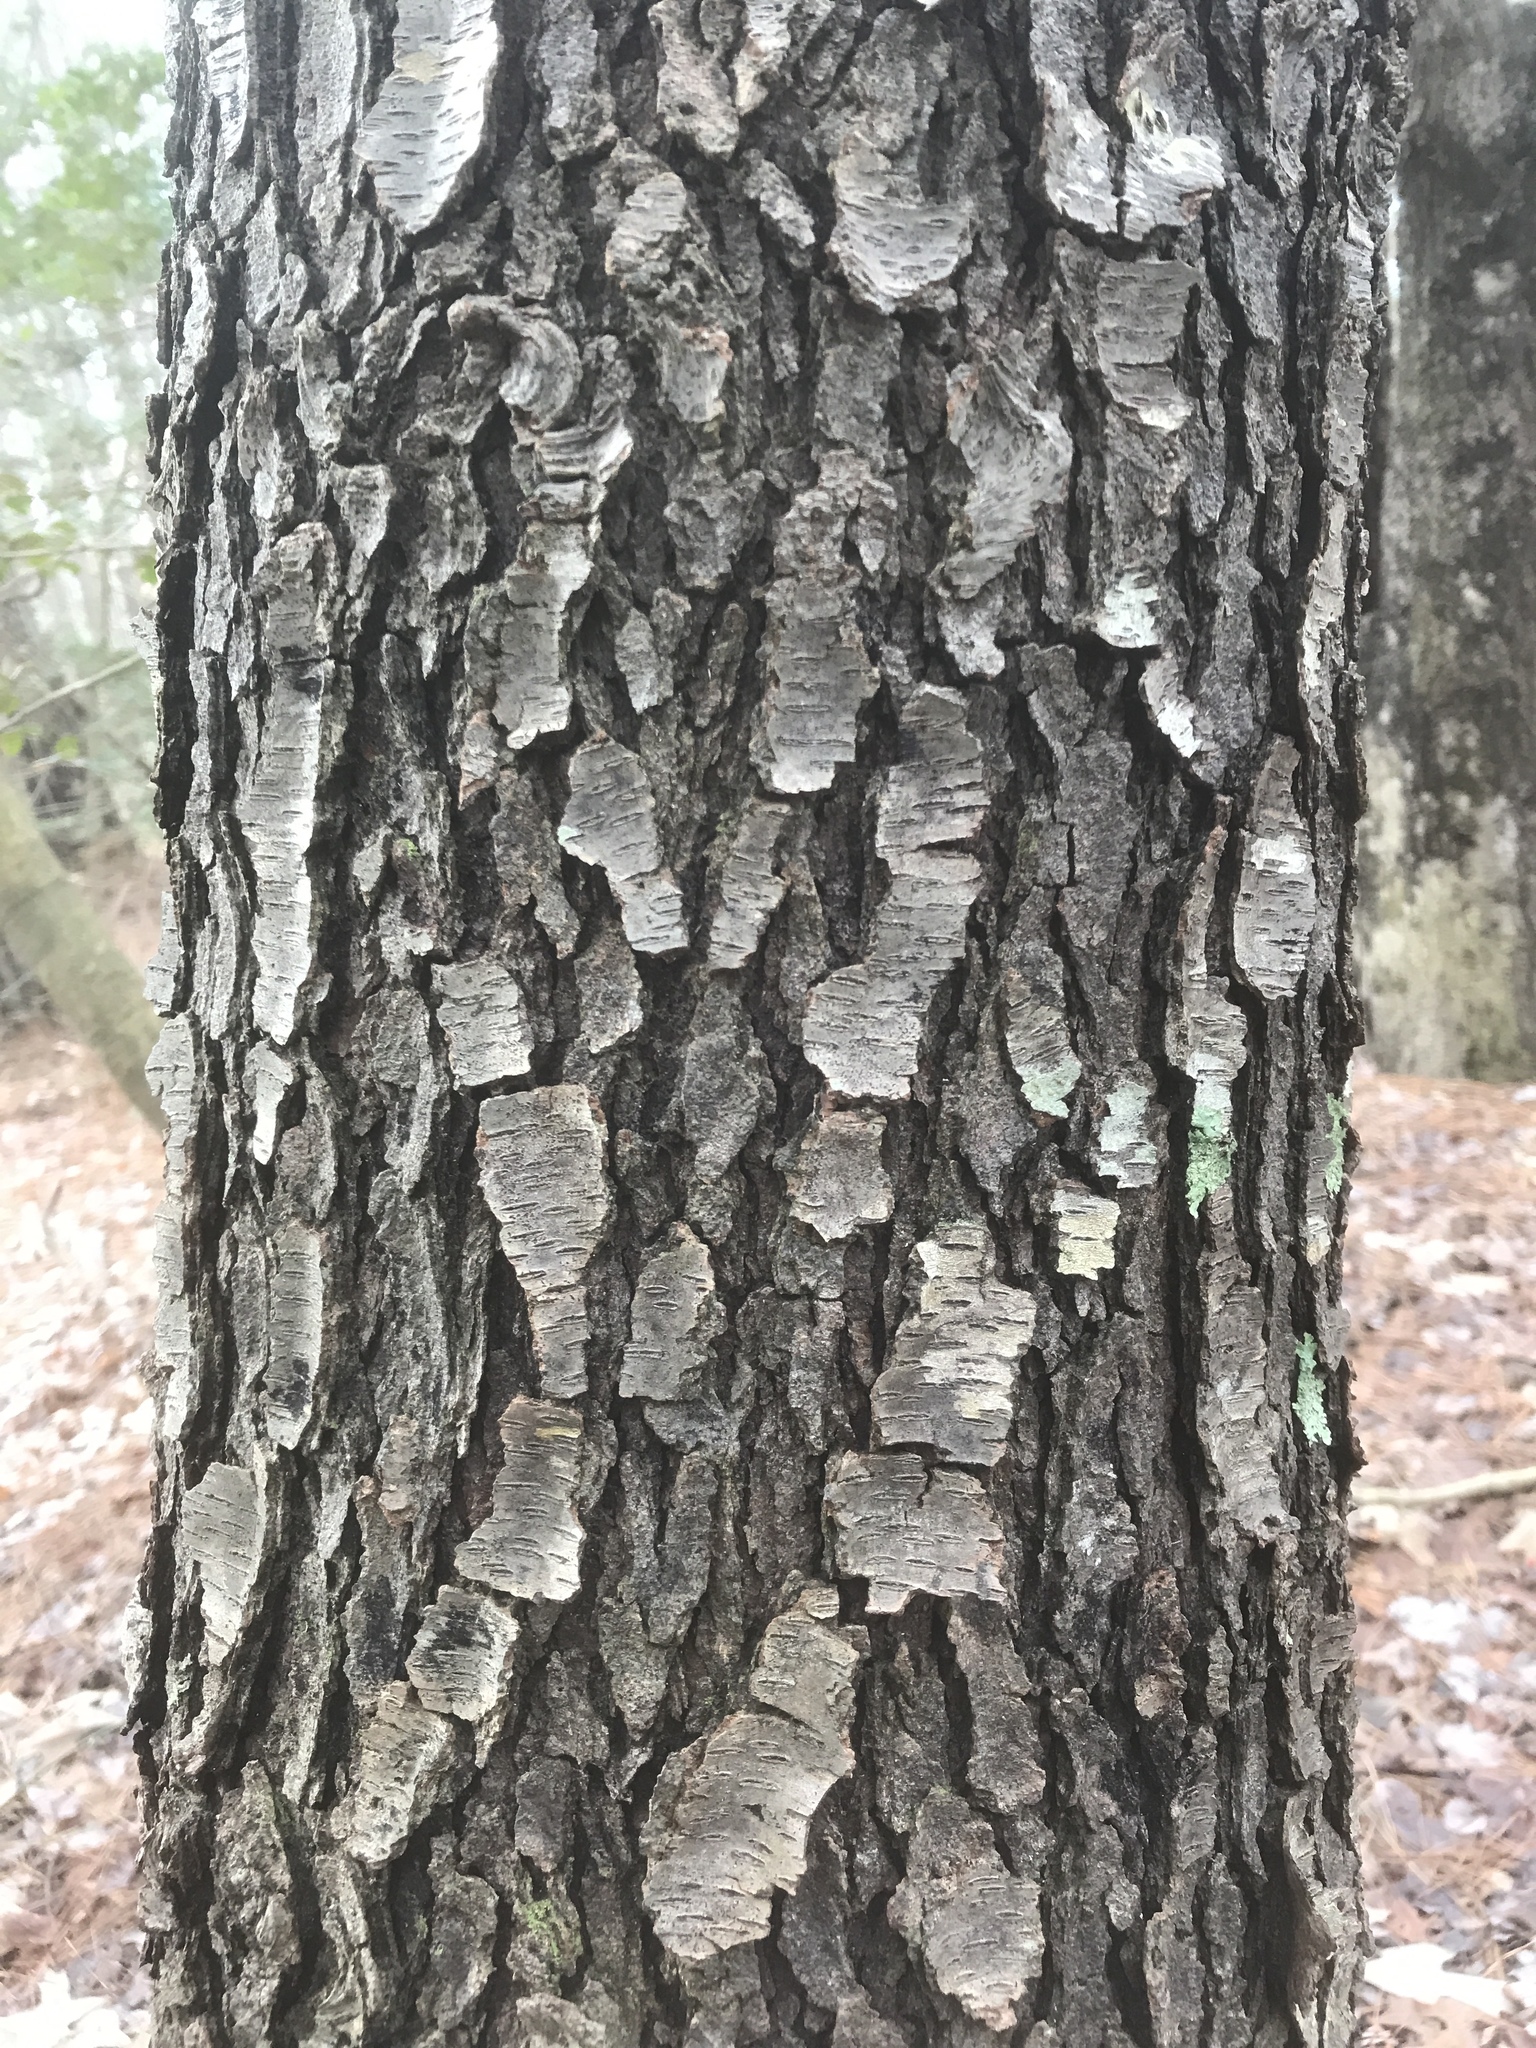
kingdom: Plantae
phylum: Tracheophyta
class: Magnoliopsida
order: Rosales
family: Rosaceae
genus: Prunus
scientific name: Prunus serotina
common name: Black cherry
